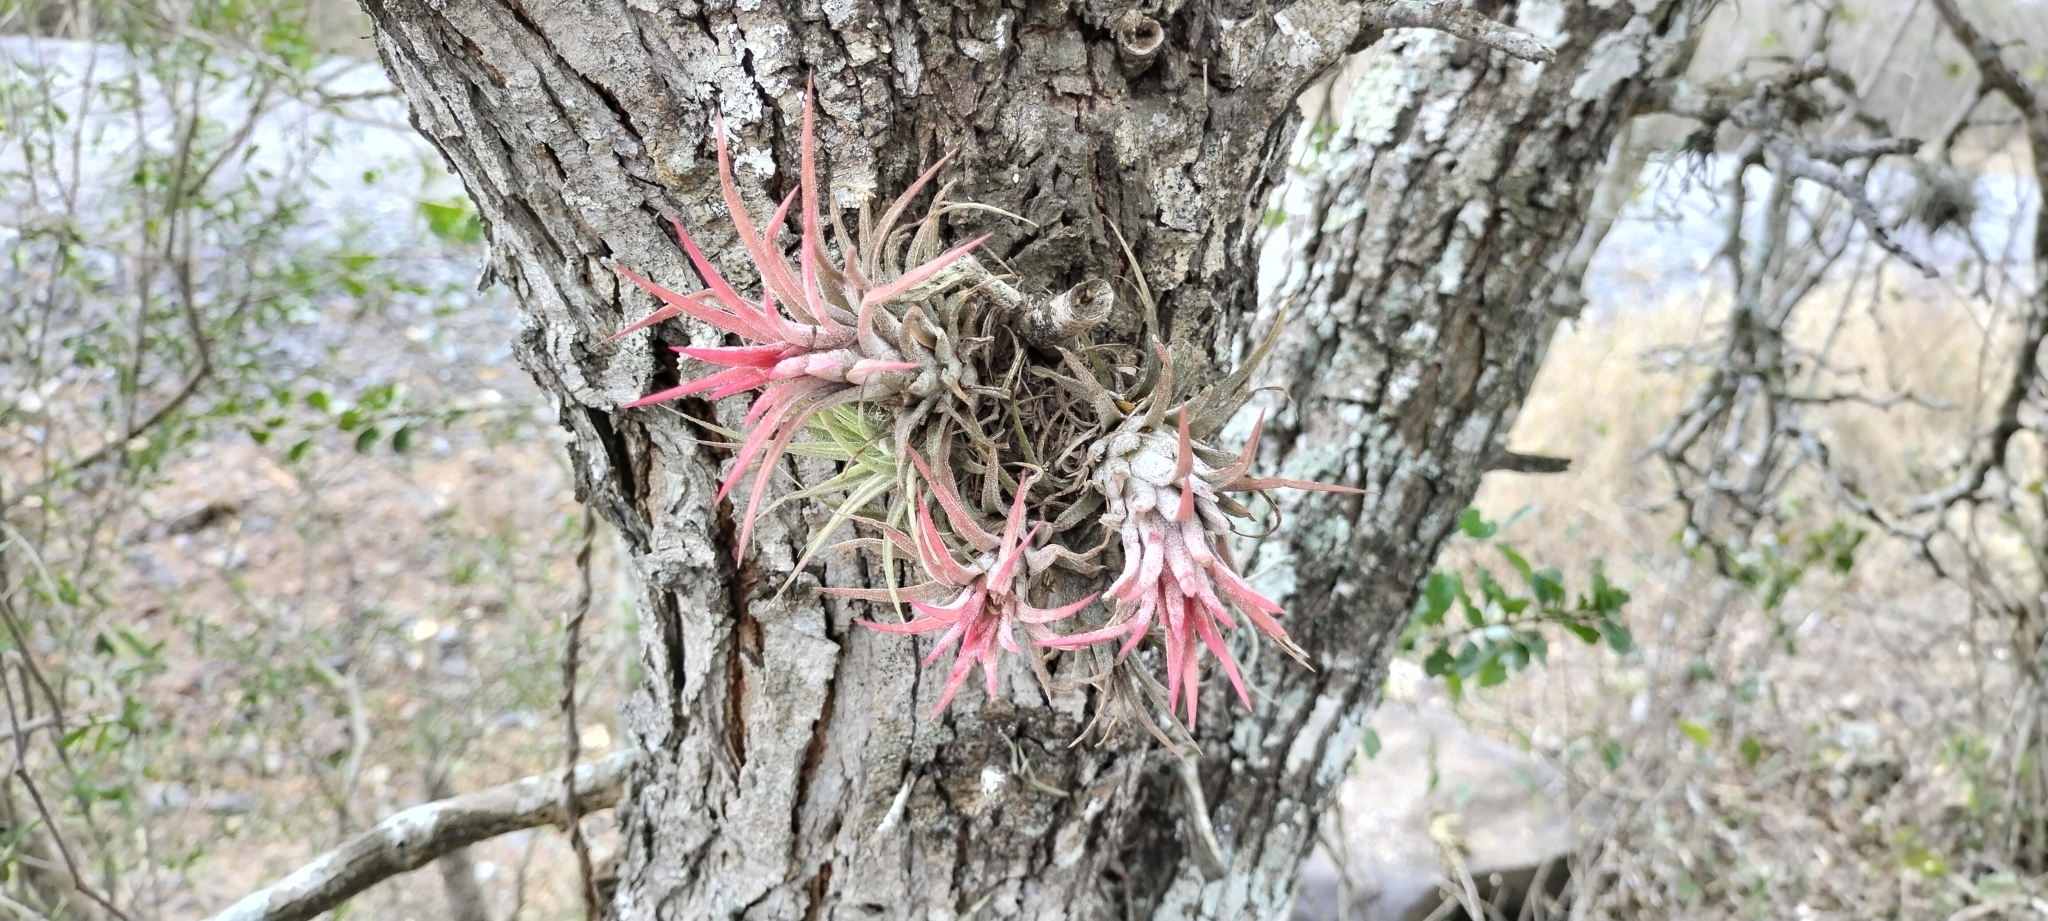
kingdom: Plantae
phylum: Tracheophyta
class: Liliopsida
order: Poales
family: Bromeliaceae
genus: Tillandsia
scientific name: Tillandsia ionantha
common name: Sky plant
